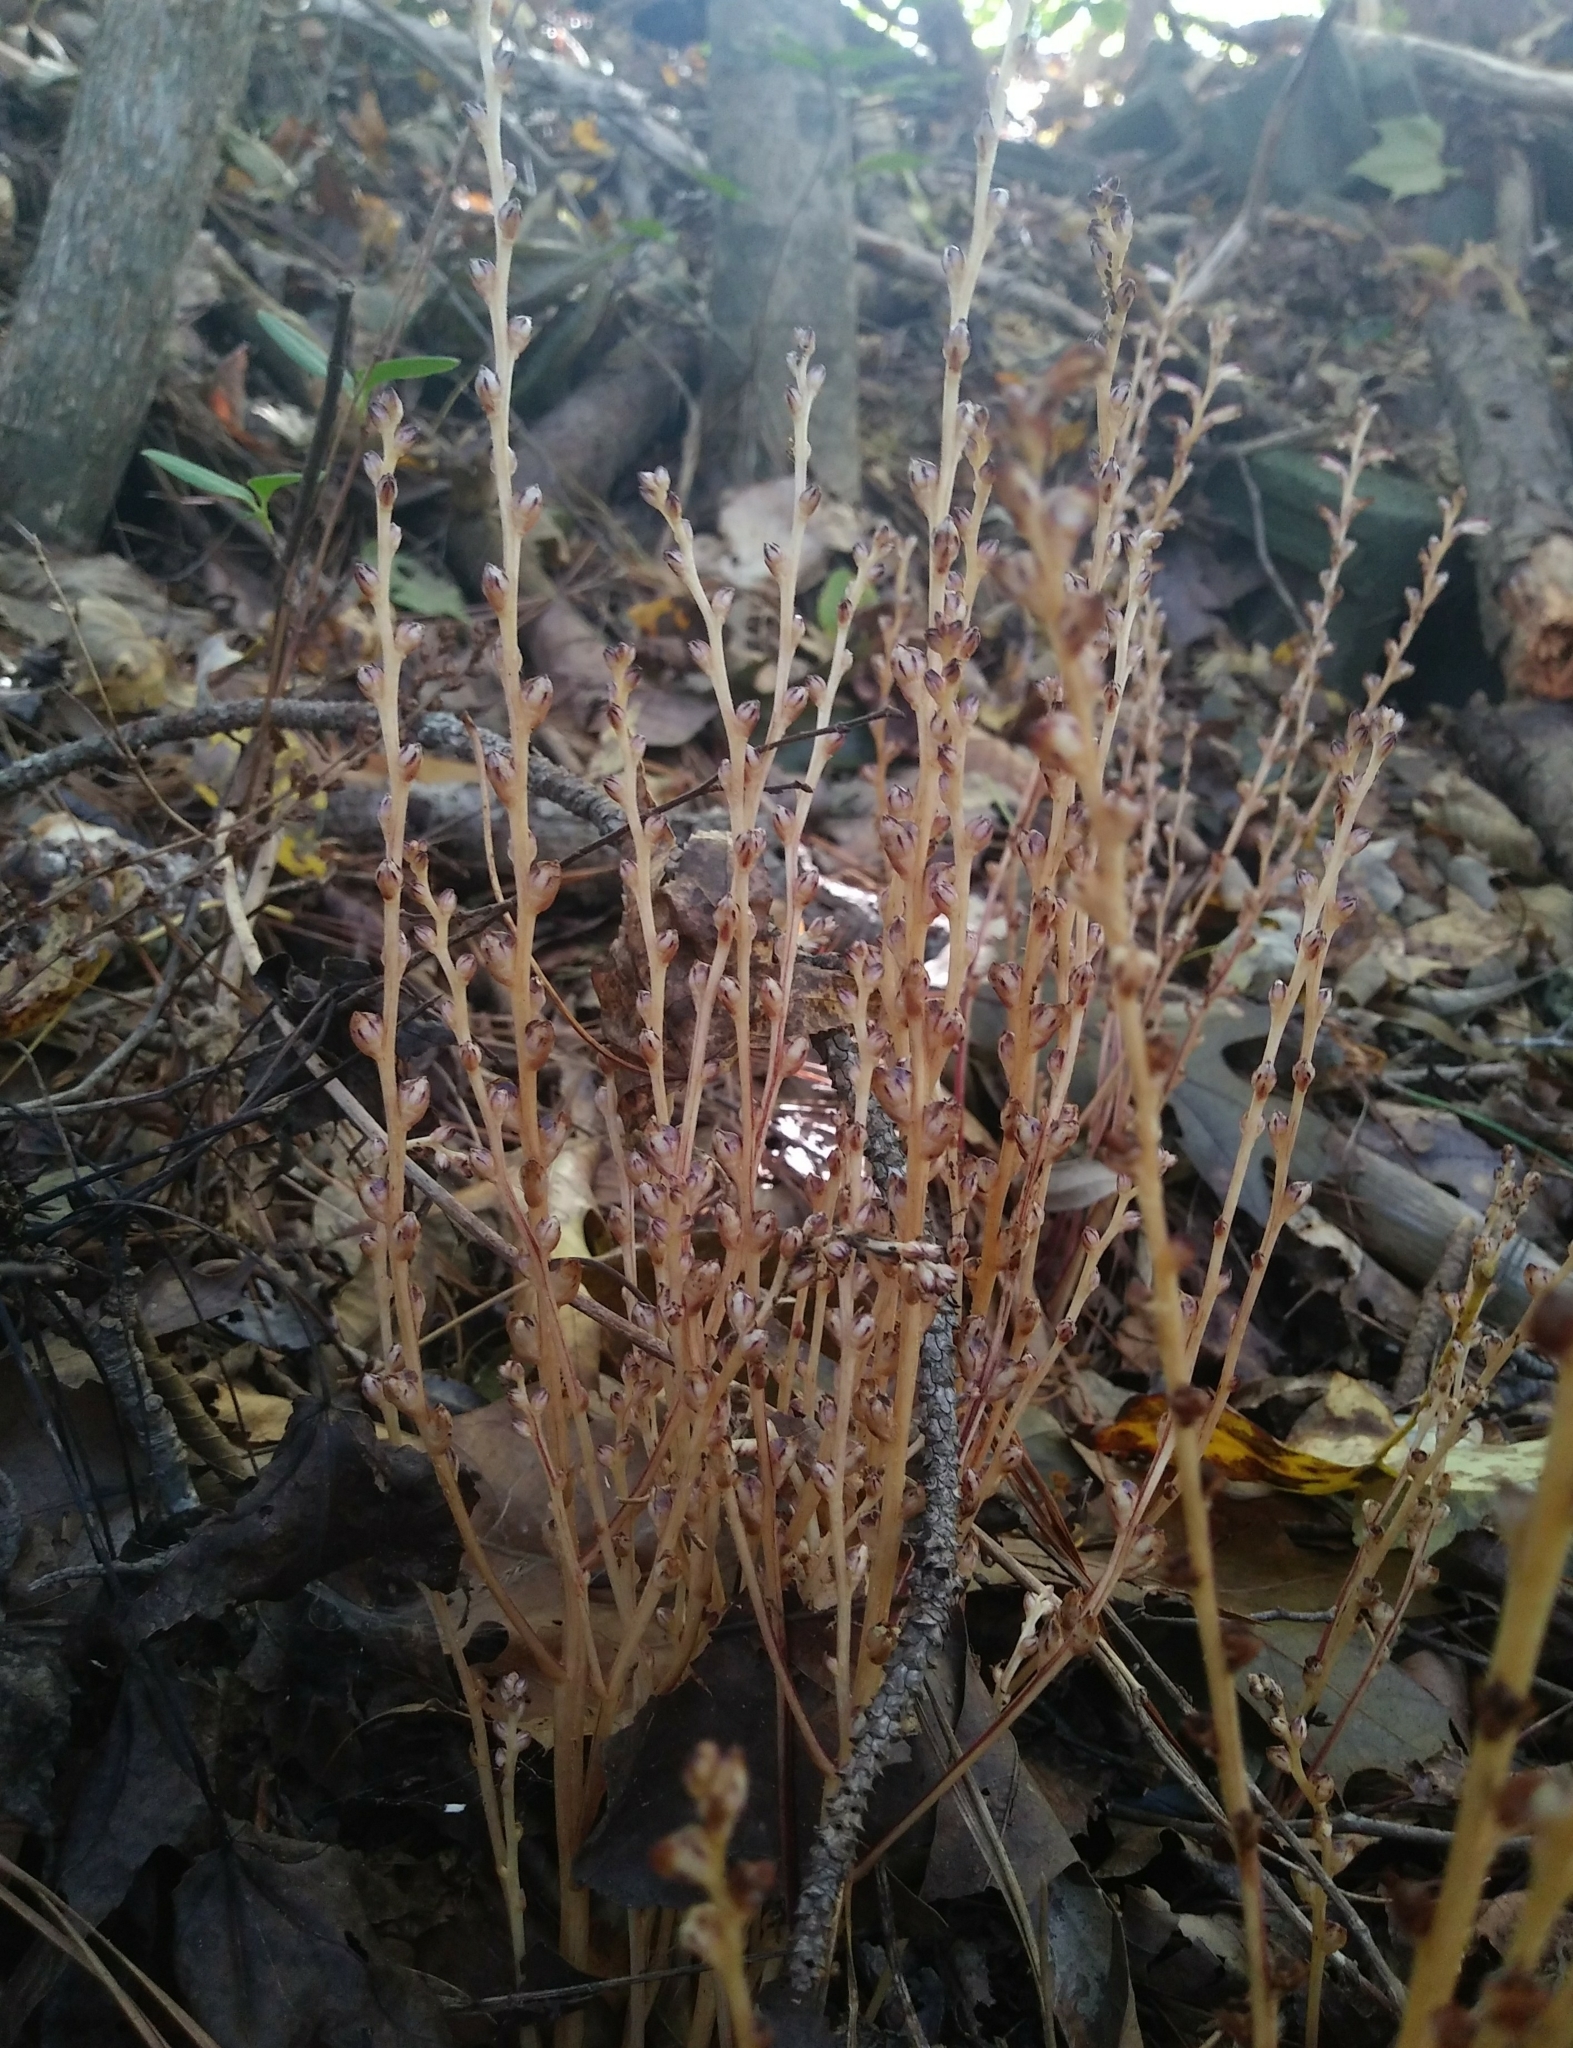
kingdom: Plantae
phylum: Tracheophyta
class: Magnoliopsida
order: Lamiales
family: Orobanchaceae
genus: Epifagus
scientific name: Epifagus virginiana
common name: Beechdrops
